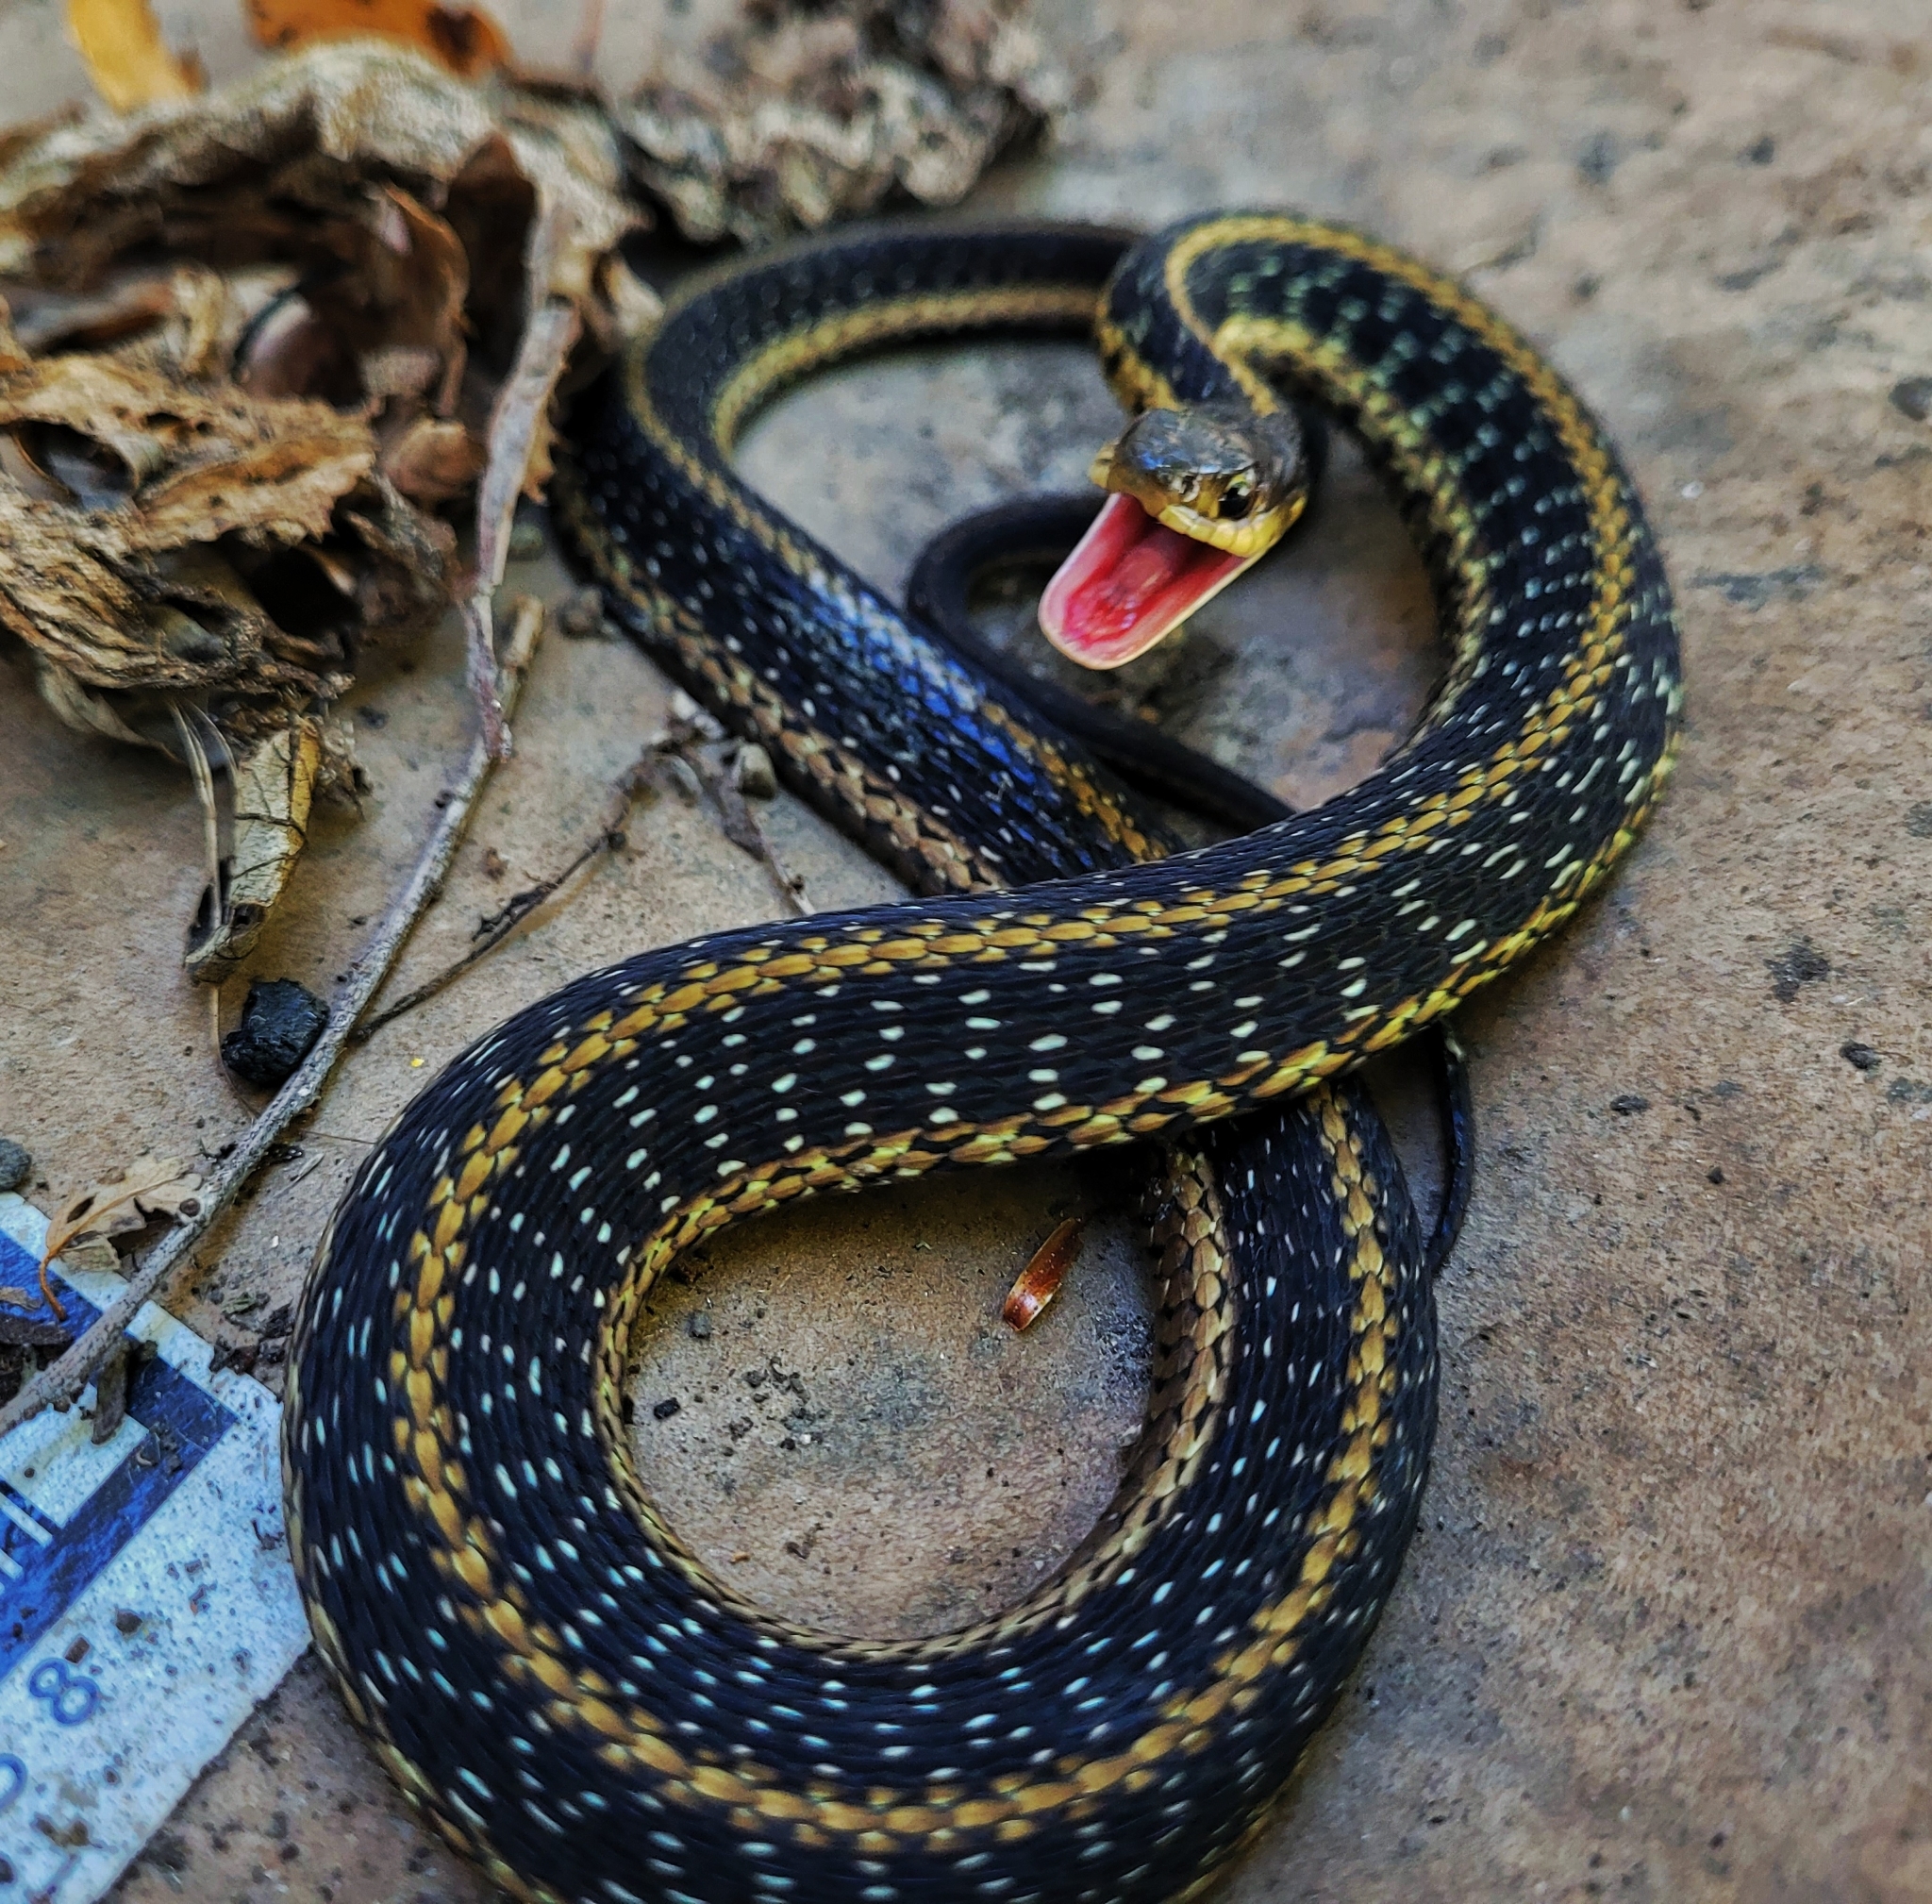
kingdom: Animalia
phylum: Chordata
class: Squamata
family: Colubridae
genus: Thamnophis
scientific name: Thamnophis sirtalis
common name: Common garter snake
